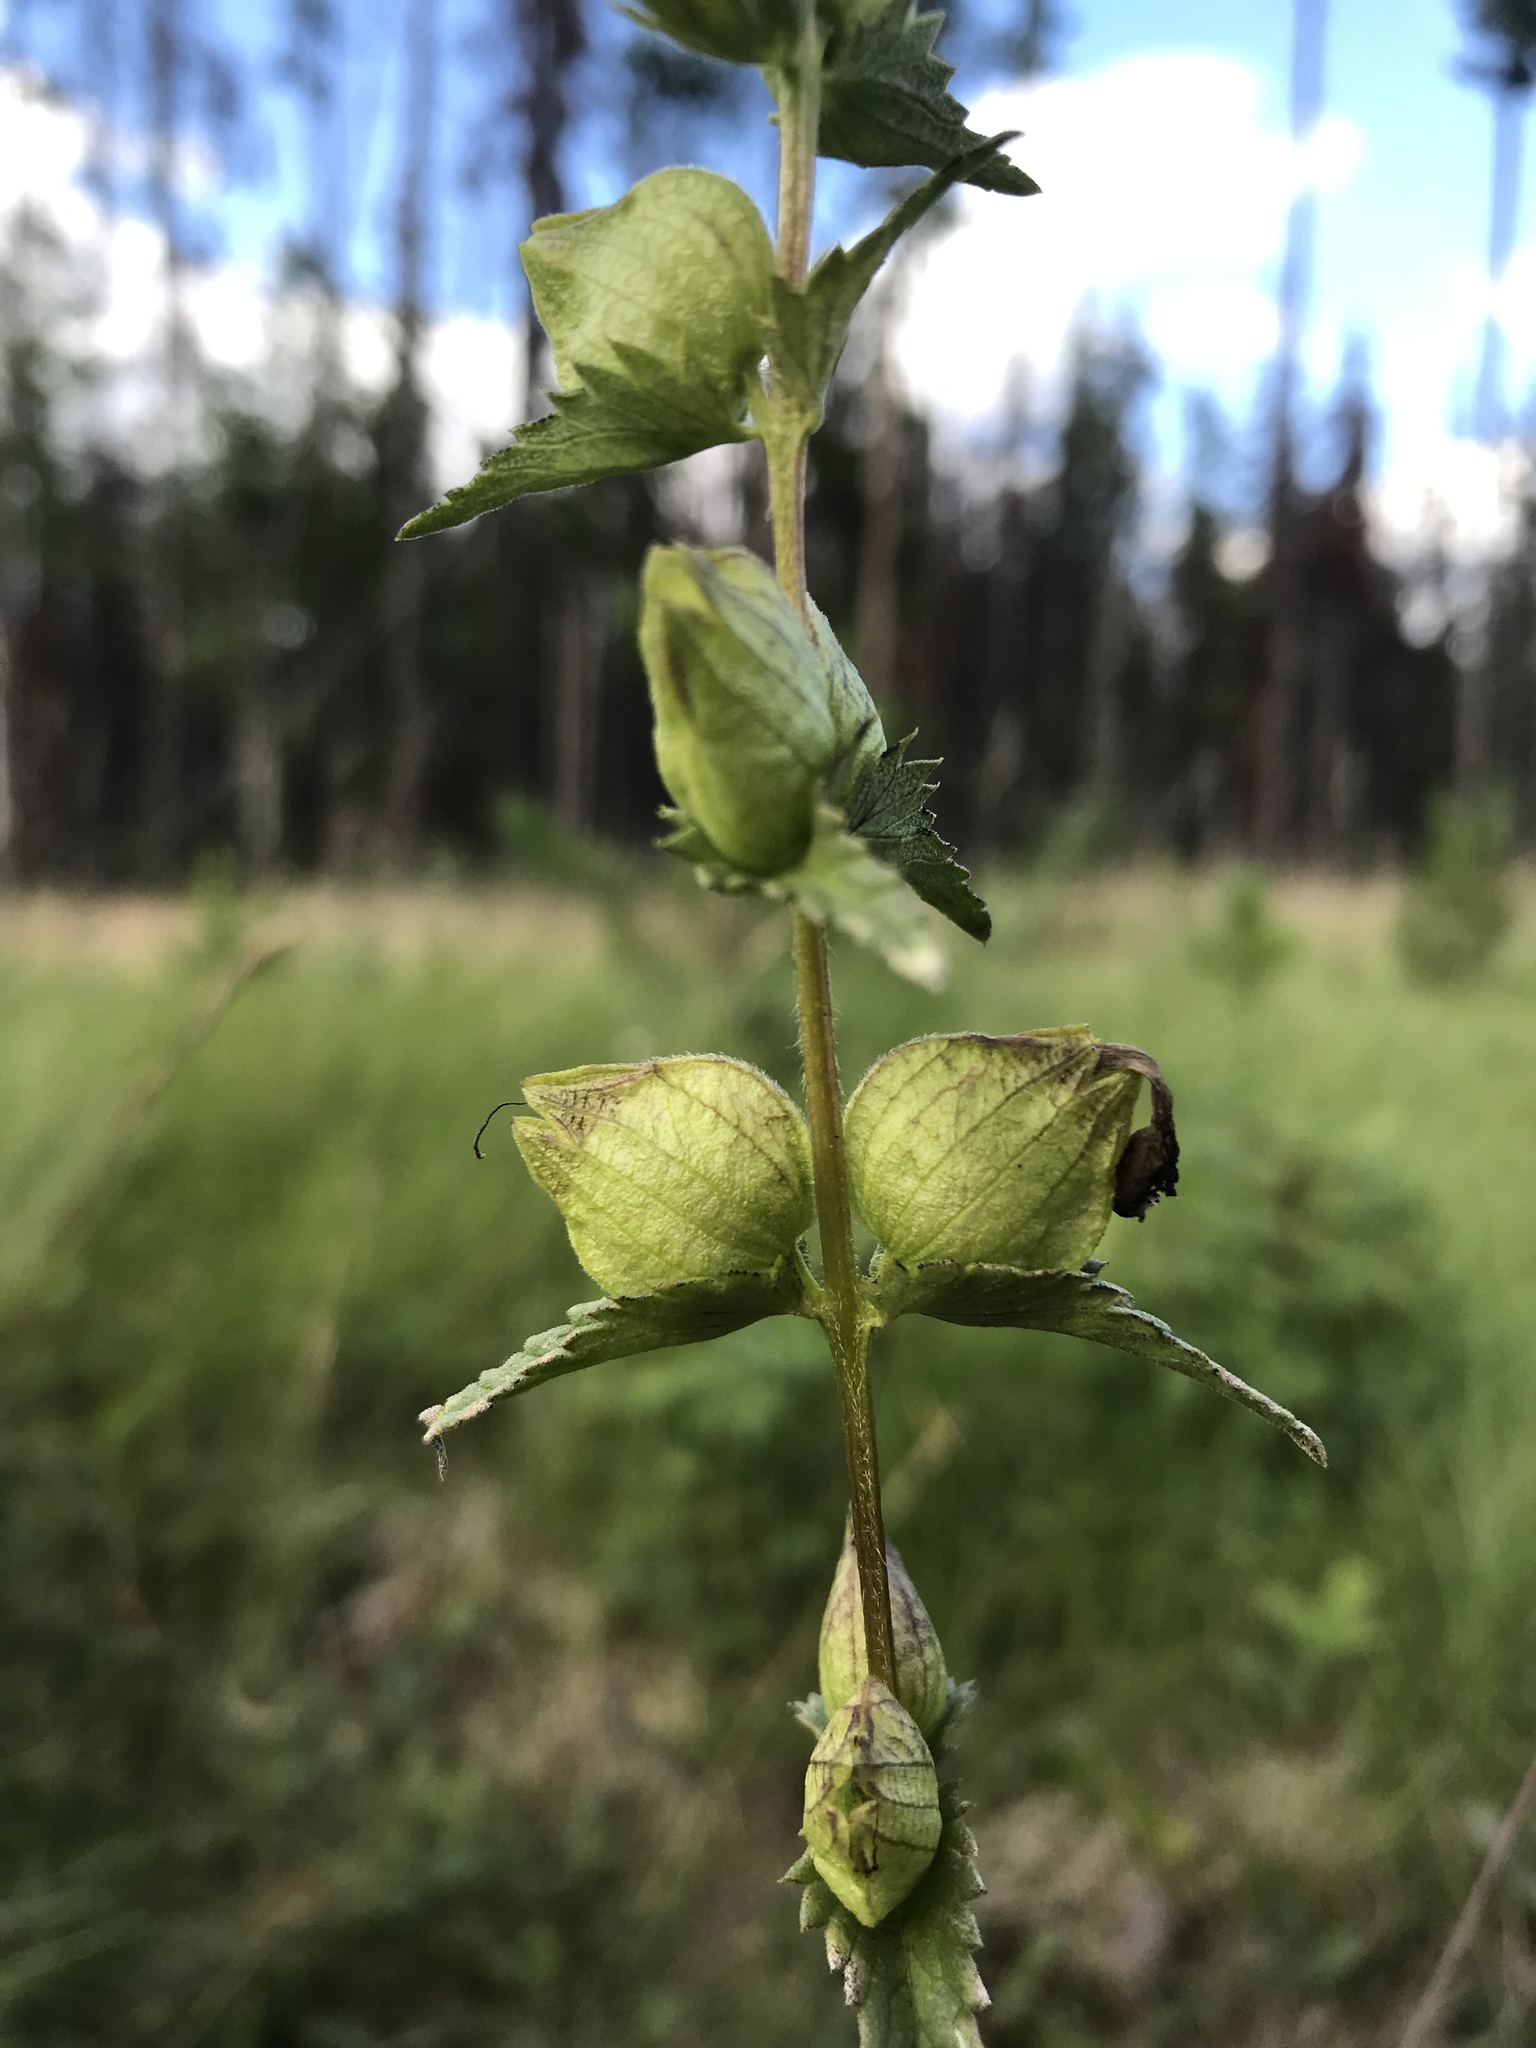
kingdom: Plantae
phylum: Tracheophyta
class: Magnoliopsida
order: Lamiales
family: Orobanchaceae
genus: Rhinanthus
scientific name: Rhinanthus groenlandicus
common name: Little yellow rattle
